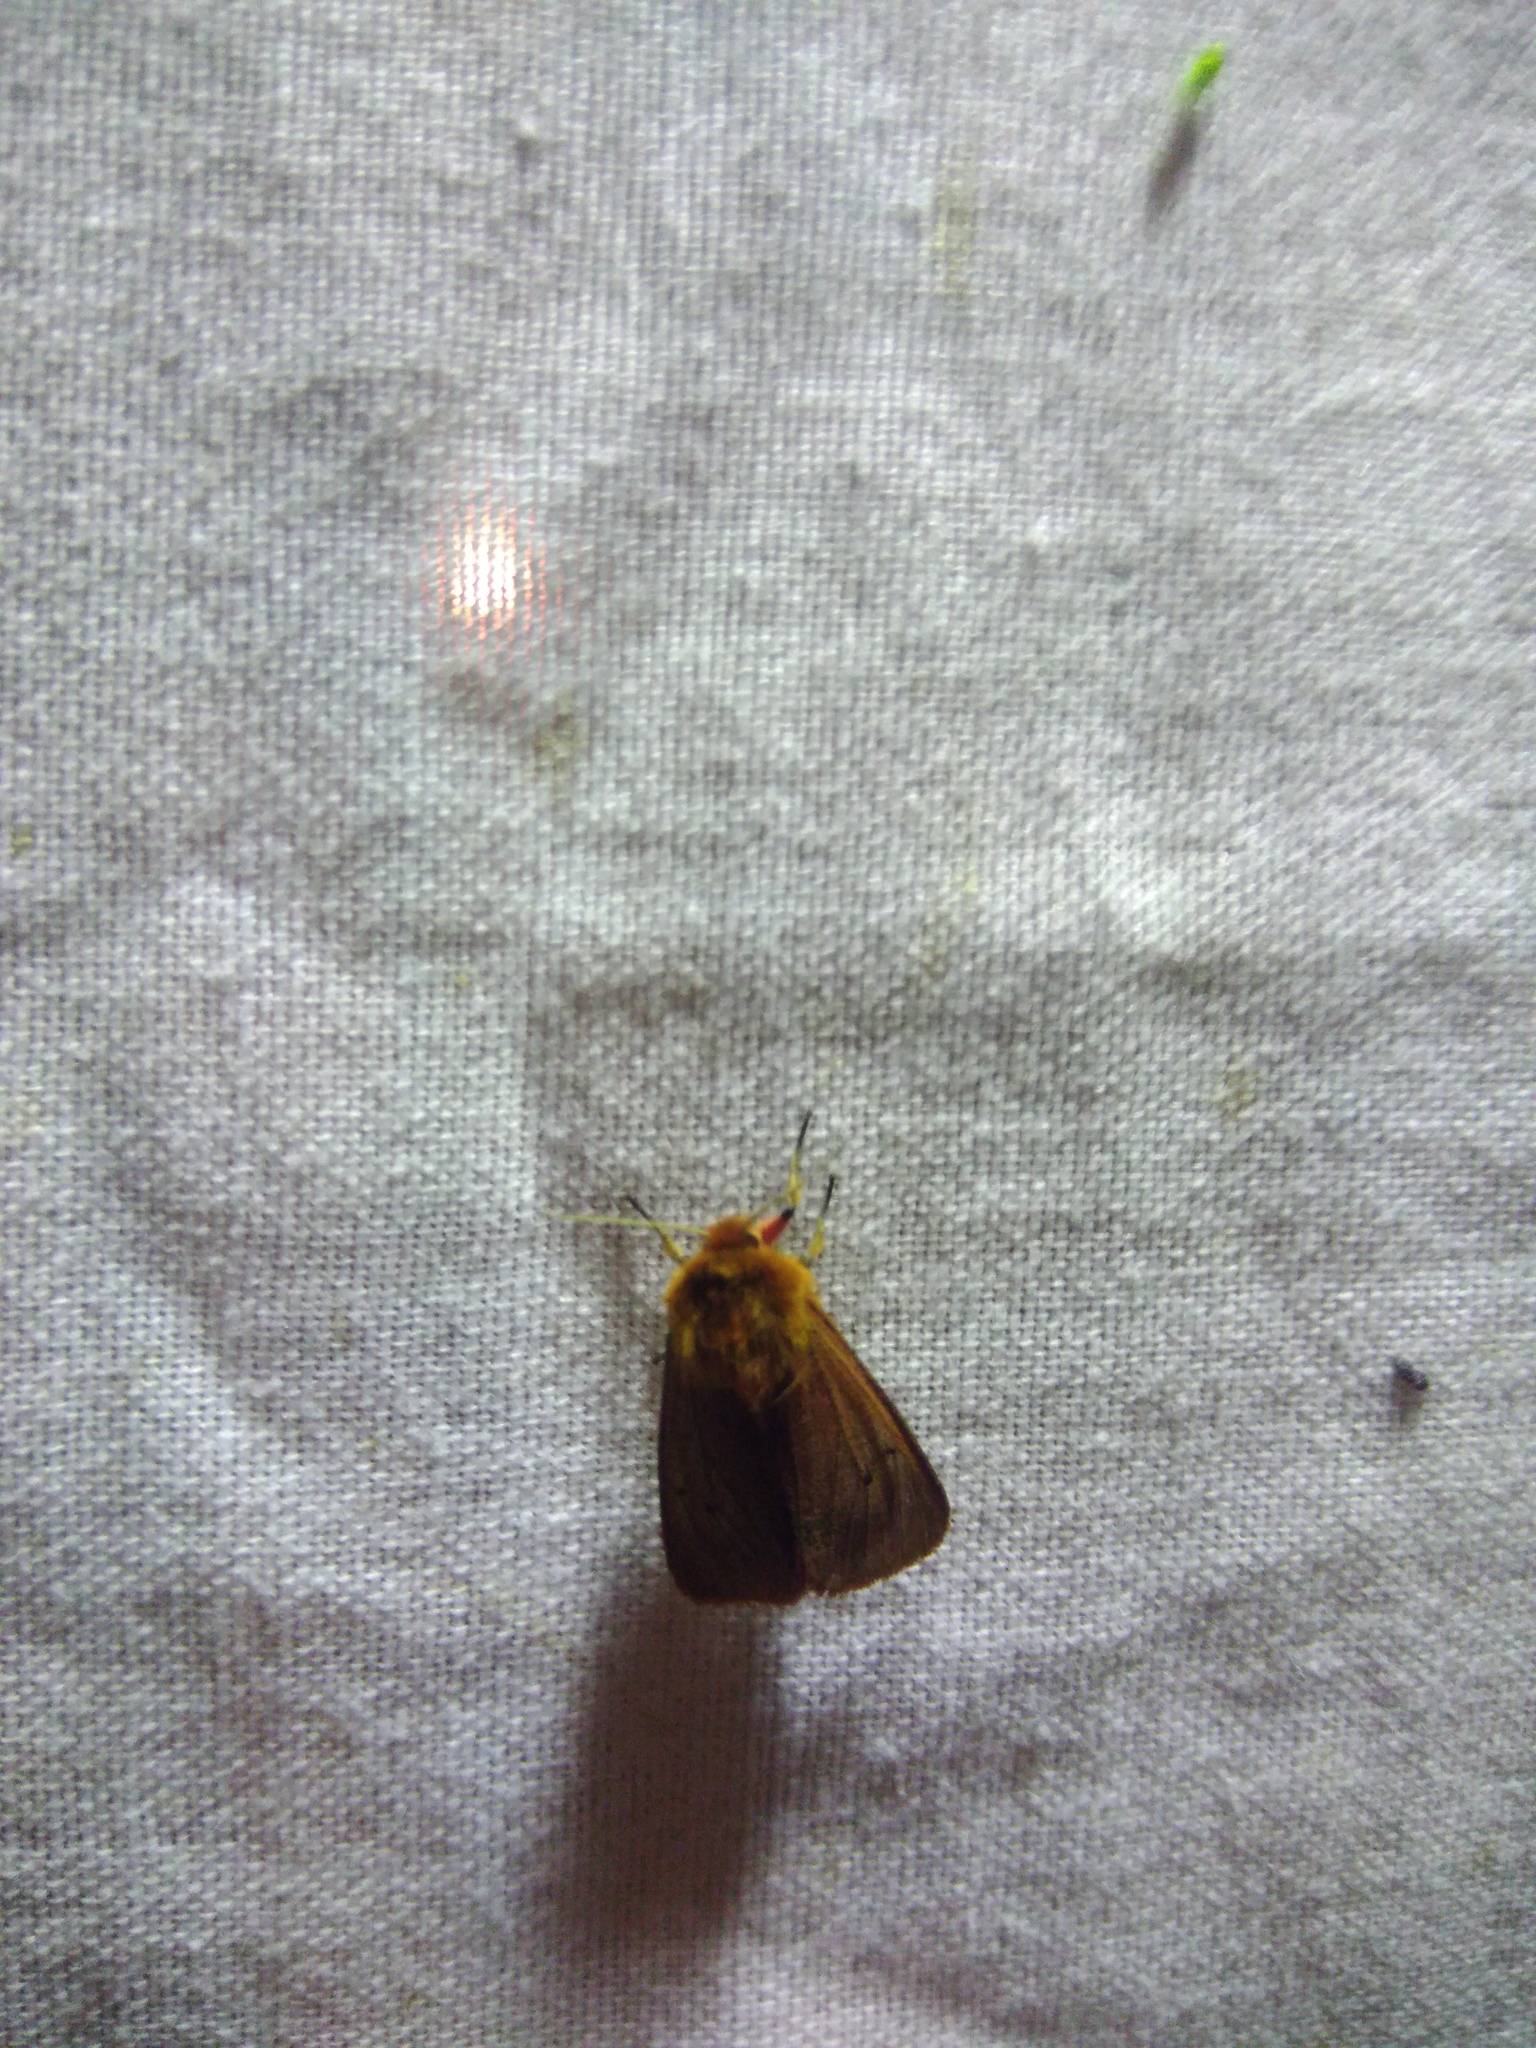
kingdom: Animalia
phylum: Arthropoda
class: Insecta
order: Lepidoptera
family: Erebidae
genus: Phragmatobia
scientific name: Phragmatobia fuliginosa
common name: Ruby tiger
